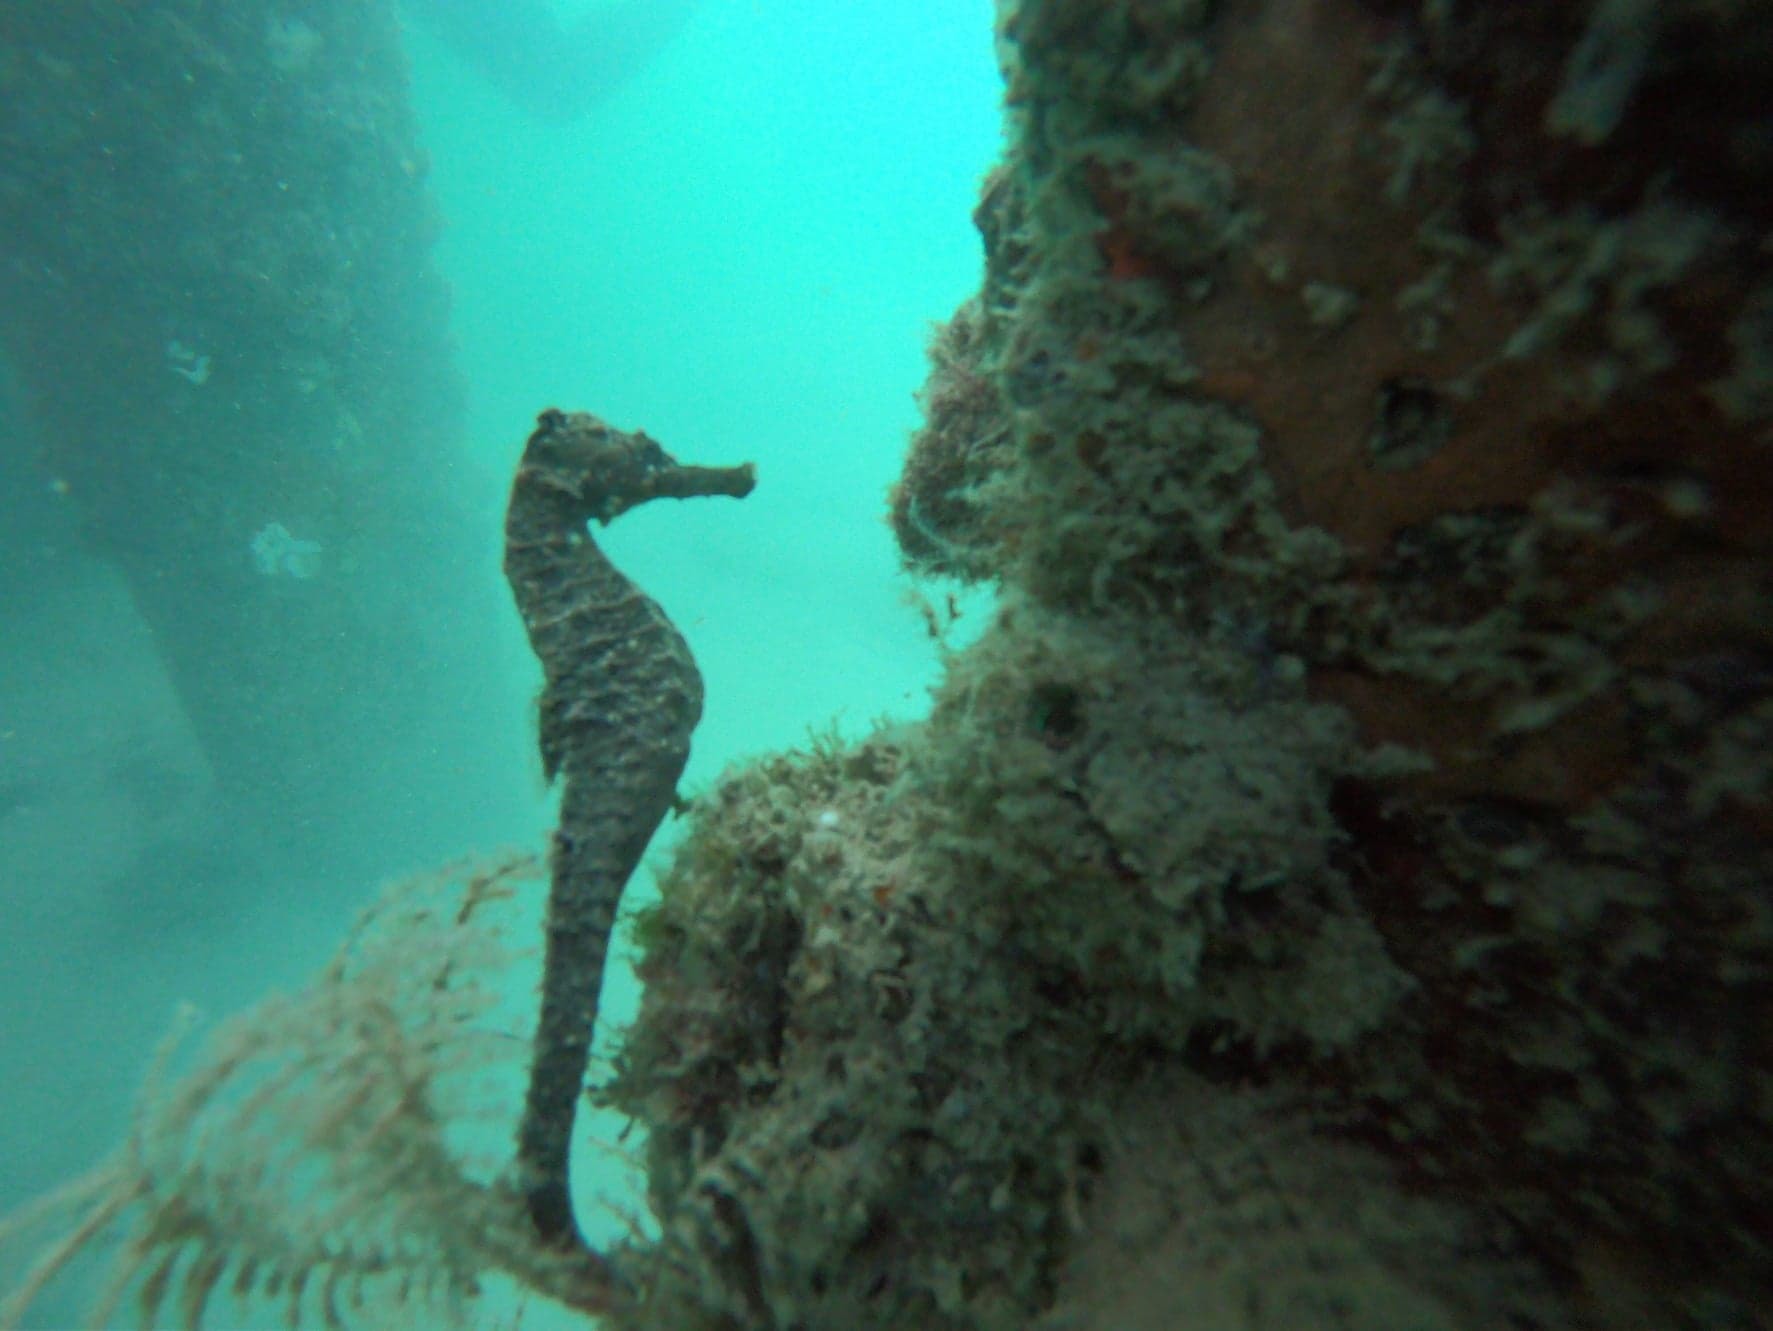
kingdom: Animalia
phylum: Chordata
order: Syngnathiformes
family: Syngnathidae
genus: Hippocampus
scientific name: Hippocampus kuda
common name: Spotted seahorse
